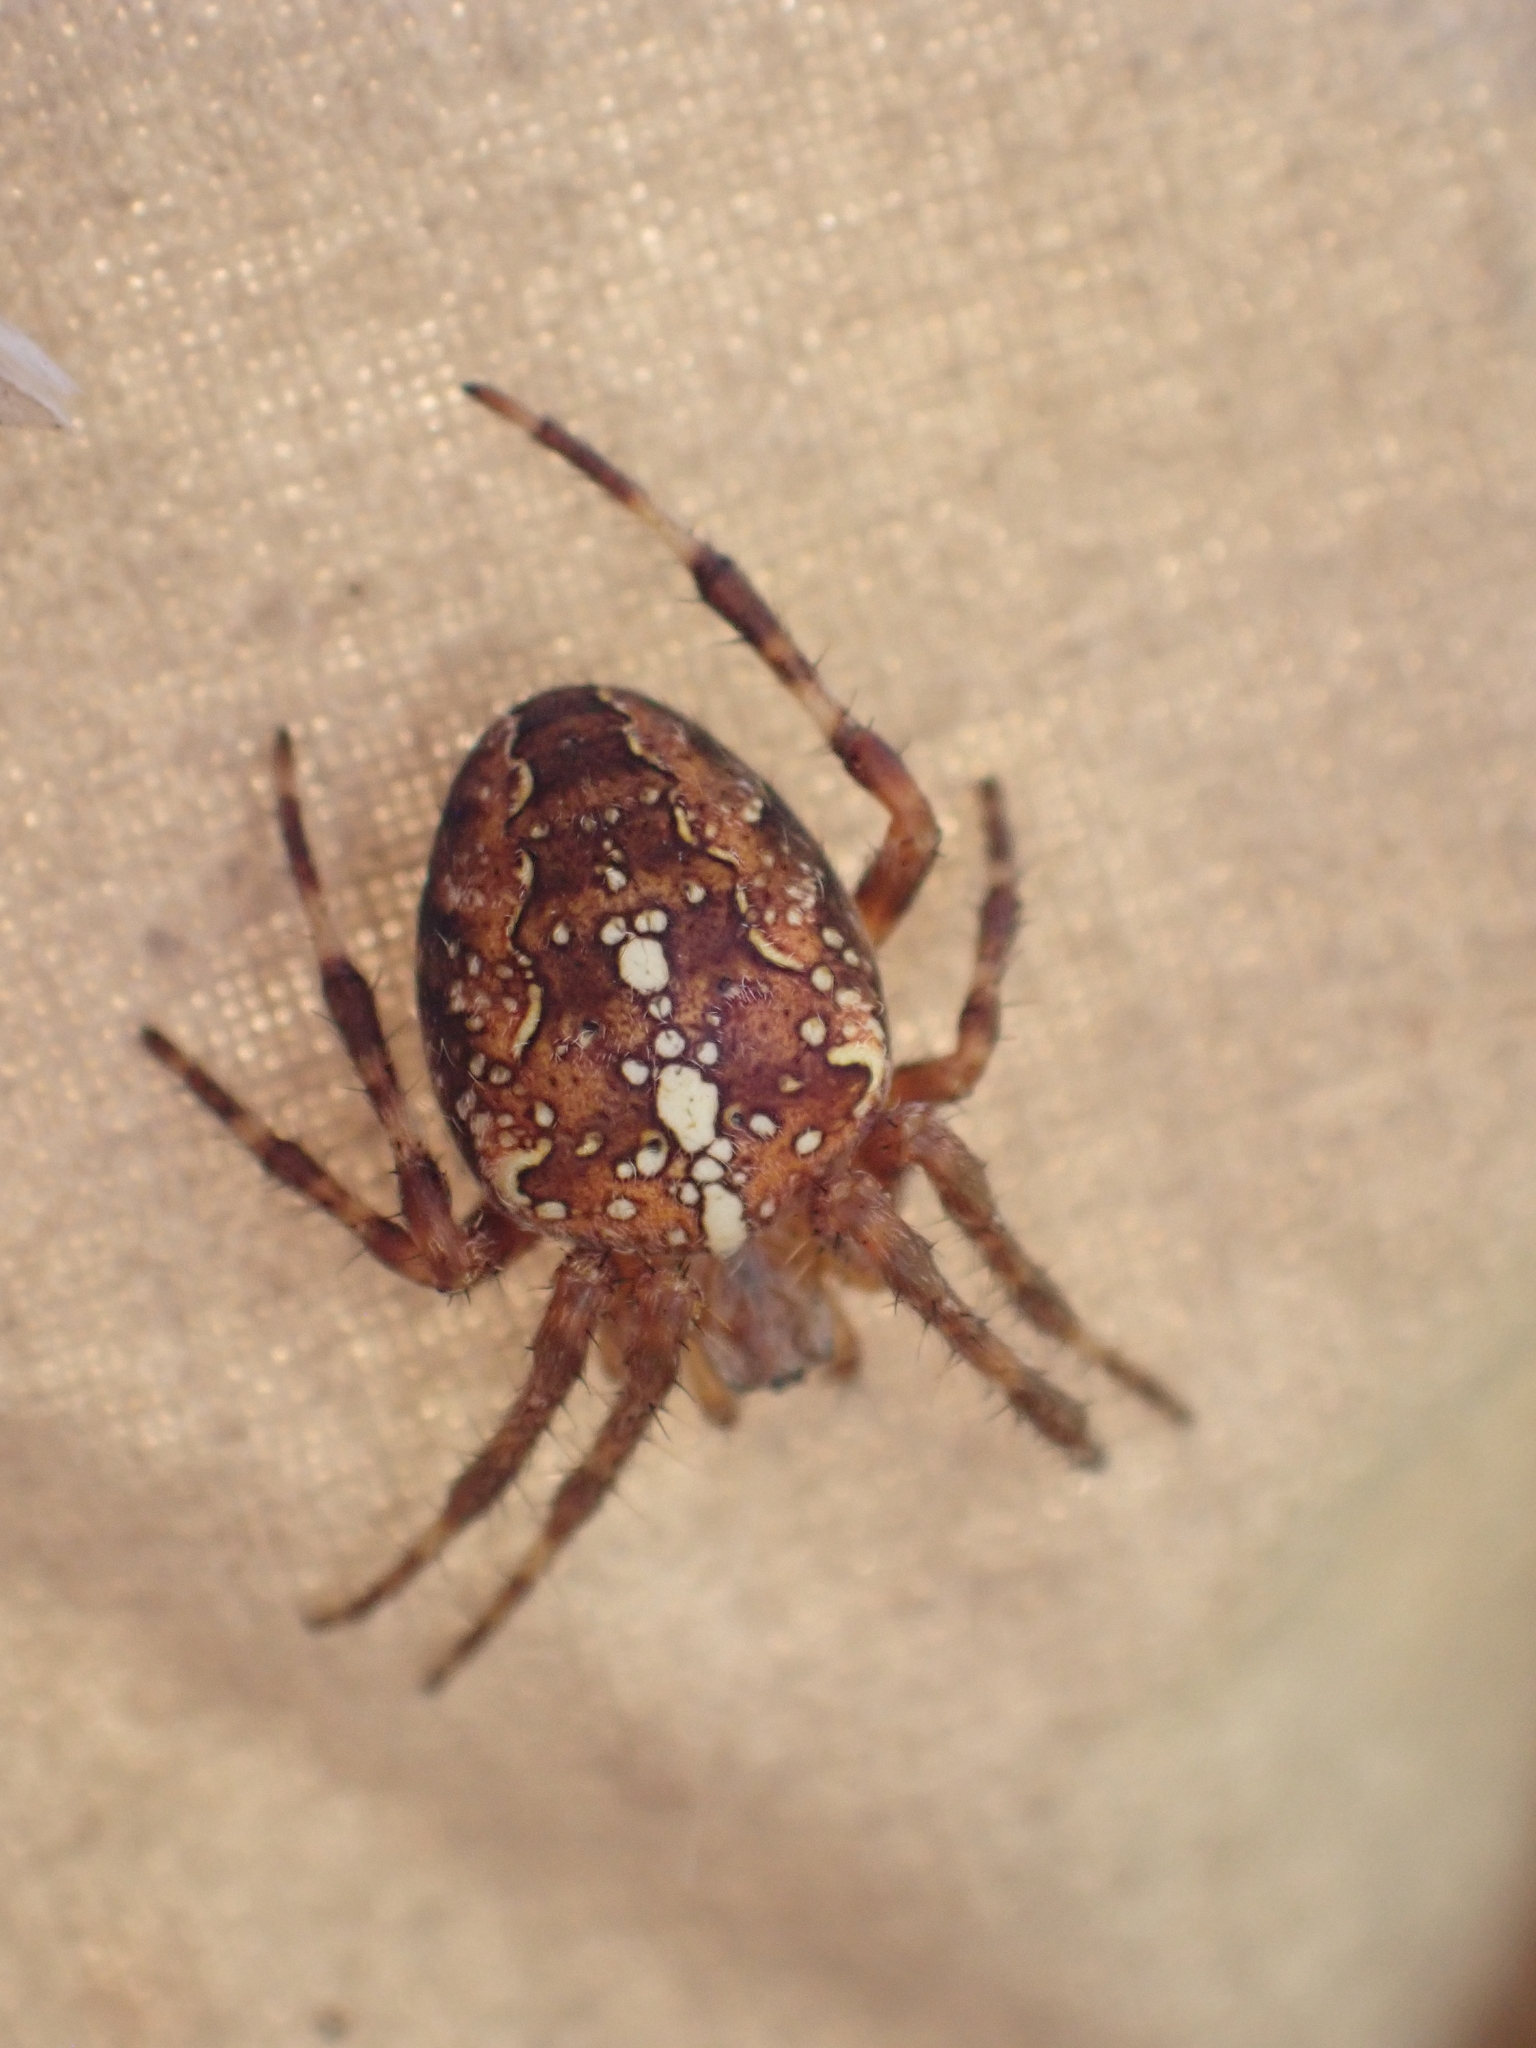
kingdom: Animalia
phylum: Arthropoda
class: Arachnida
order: Araneae
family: Araneidae
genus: Araneus
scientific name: Araneus diadematus
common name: Cross orbweaver
